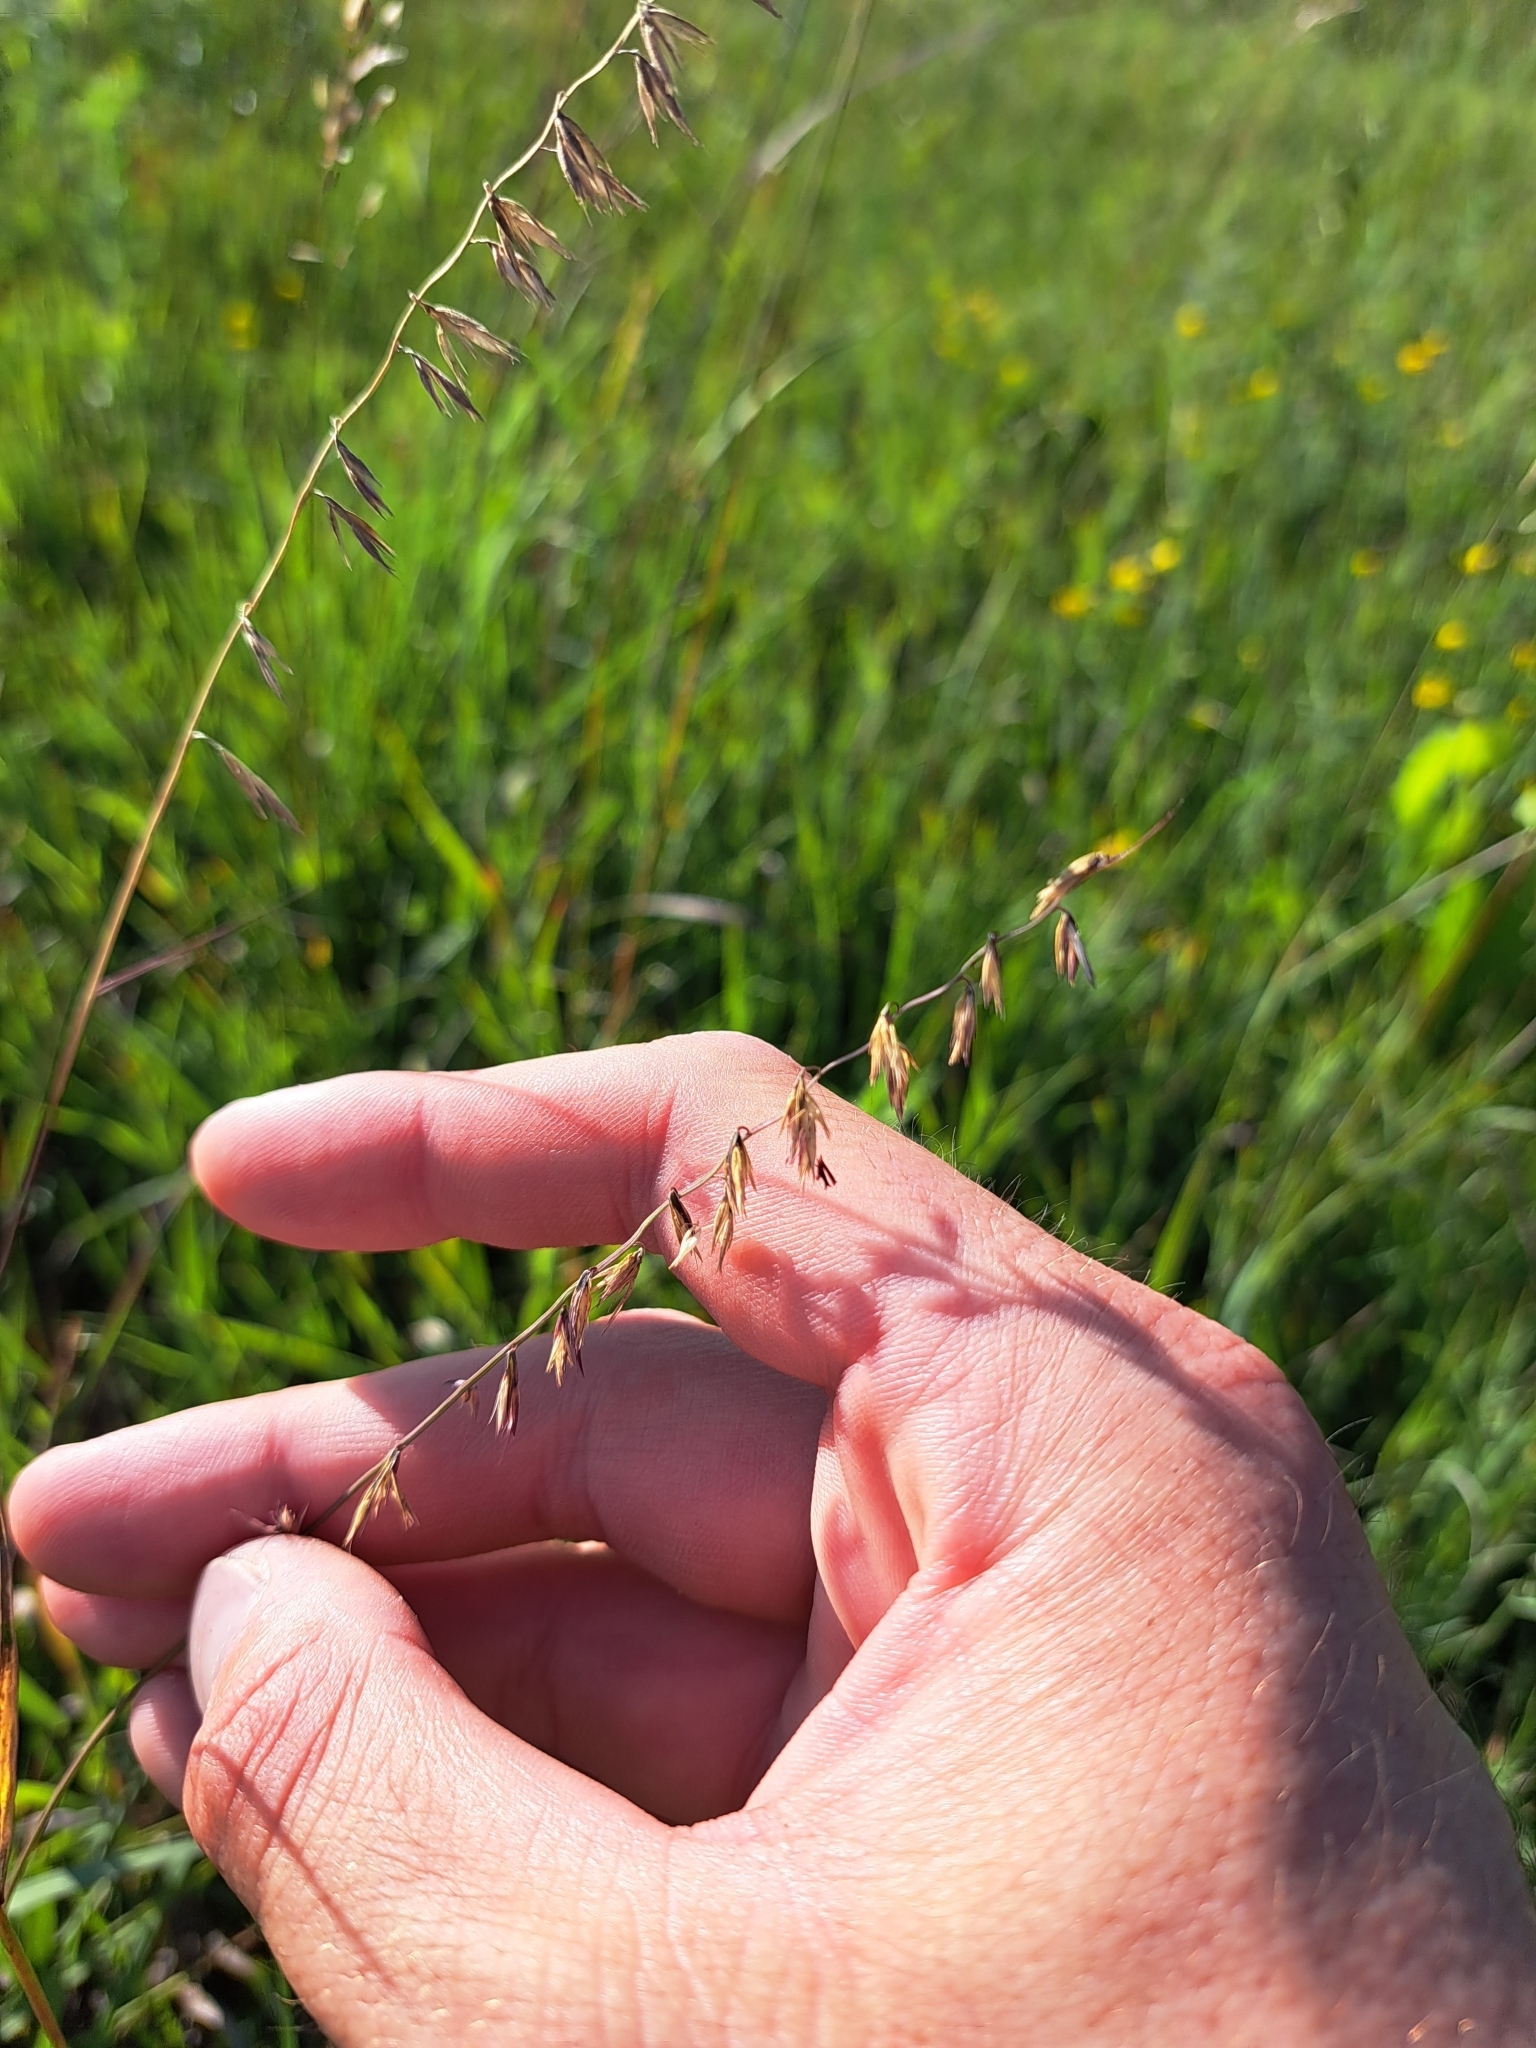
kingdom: Plantae
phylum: Tracheophyta
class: Liliopsida
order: Poales
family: Poaceae
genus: Bouteloua
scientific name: Bouteloua curtipendula
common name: Side-oats grama
